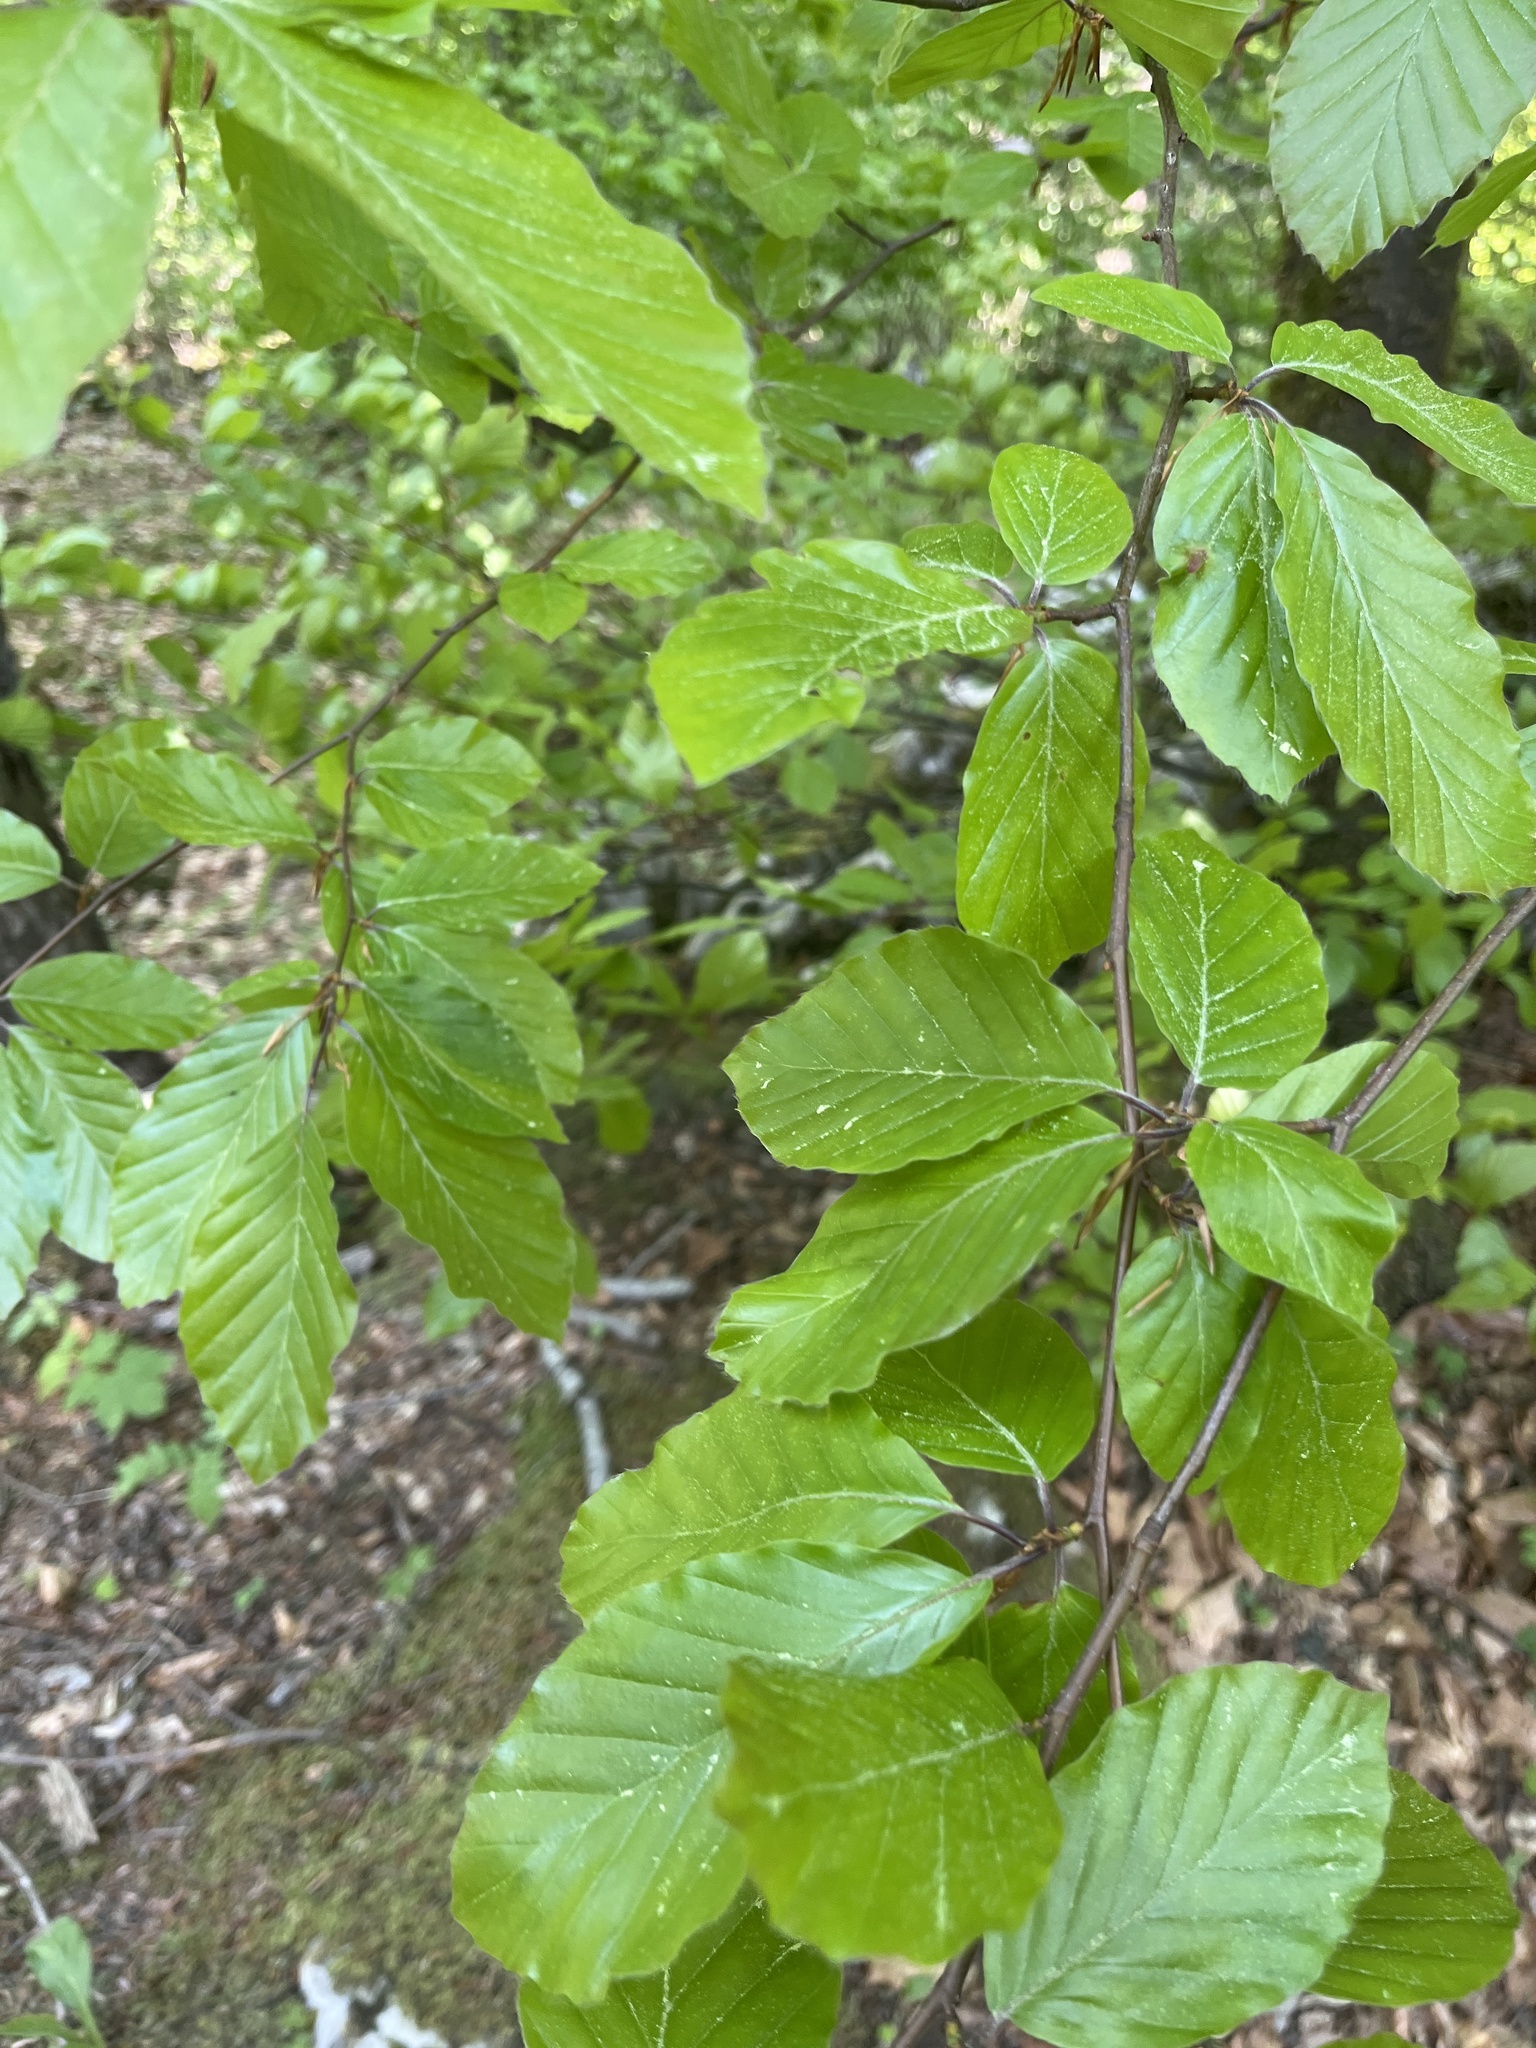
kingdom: Plantae
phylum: Tracheophyta
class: Magnoliopsida
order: Fagales
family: Fagaceae
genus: Fagus
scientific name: Fagus sylvatica
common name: Beech
